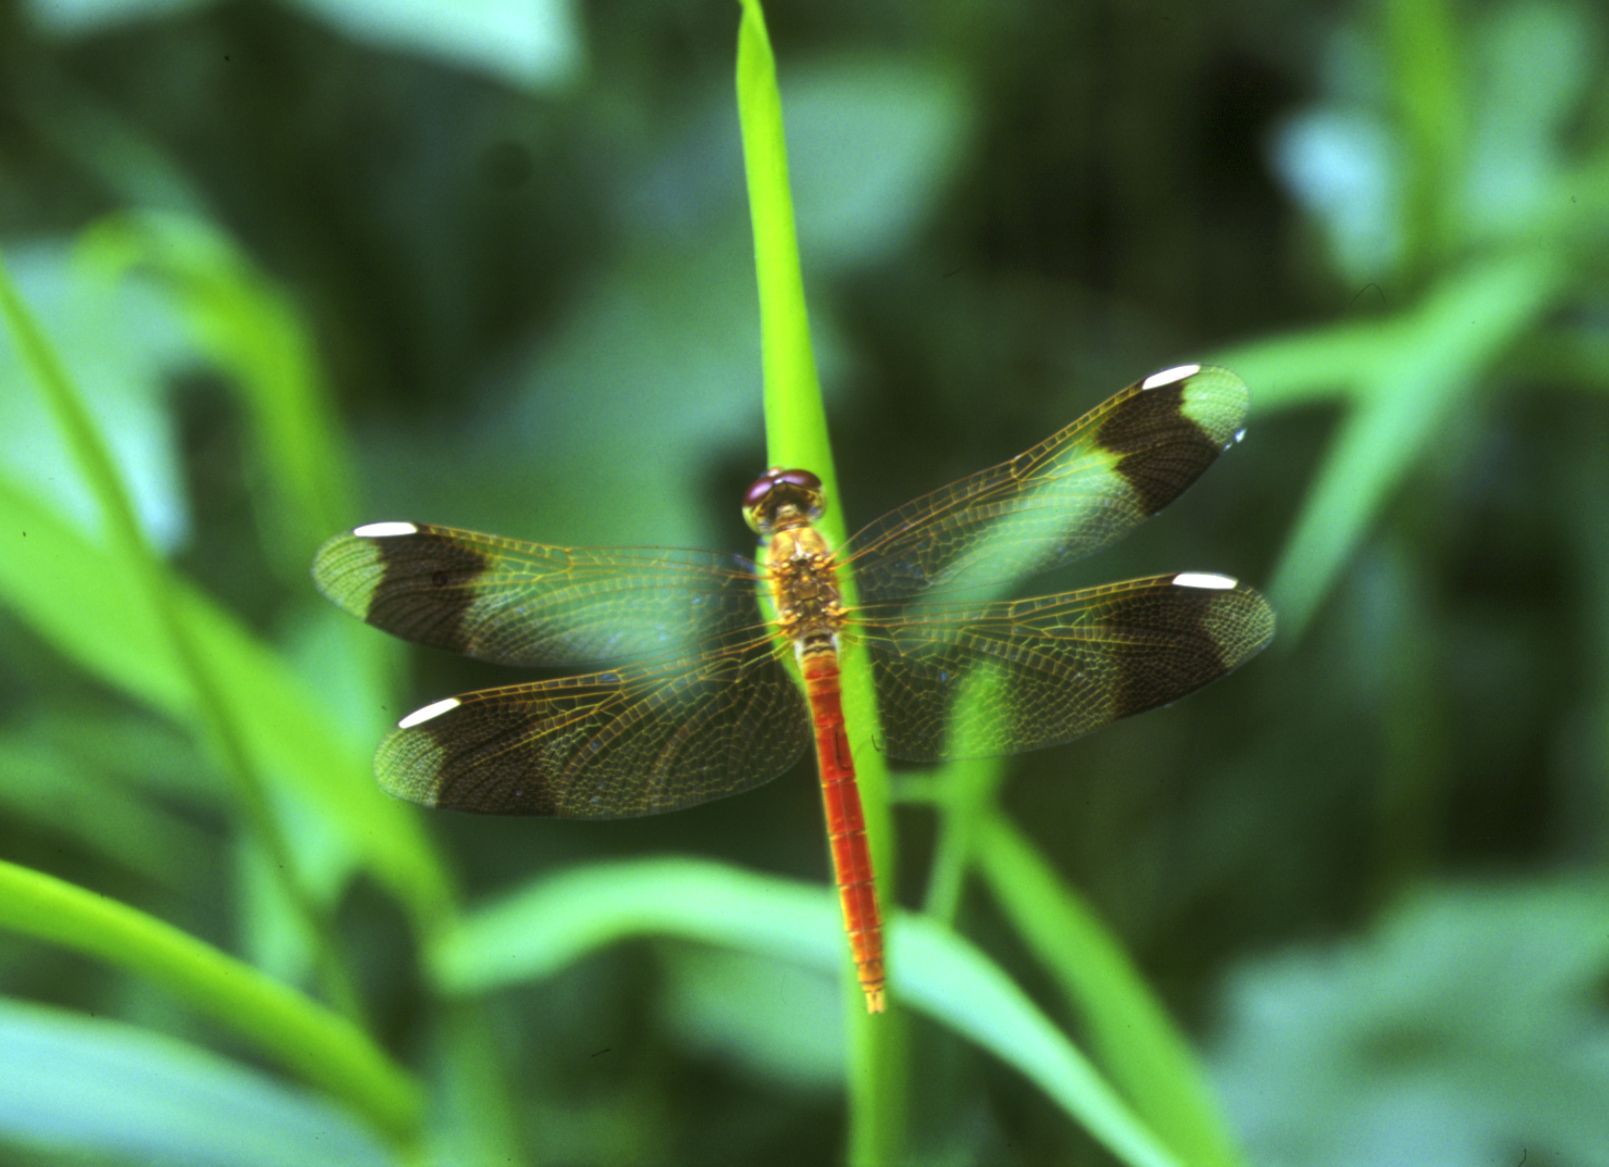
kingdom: Animalia
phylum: Arthropoda
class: Insecta
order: Odonata
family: Libellulidae
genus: Sympetrum
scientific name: Sympetrum pedemontanum
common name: Banded darter
